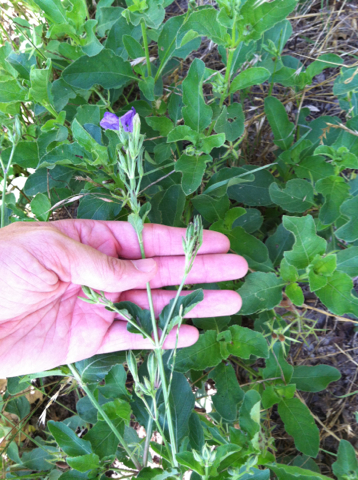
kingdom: Plantae
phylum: Tracheophyta
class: Magnoliopsida
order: Lamiales
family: Acanthaceae
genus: Ruellia
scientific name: Ruellia ciliatiflora
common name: Hairyflower wild petunia
